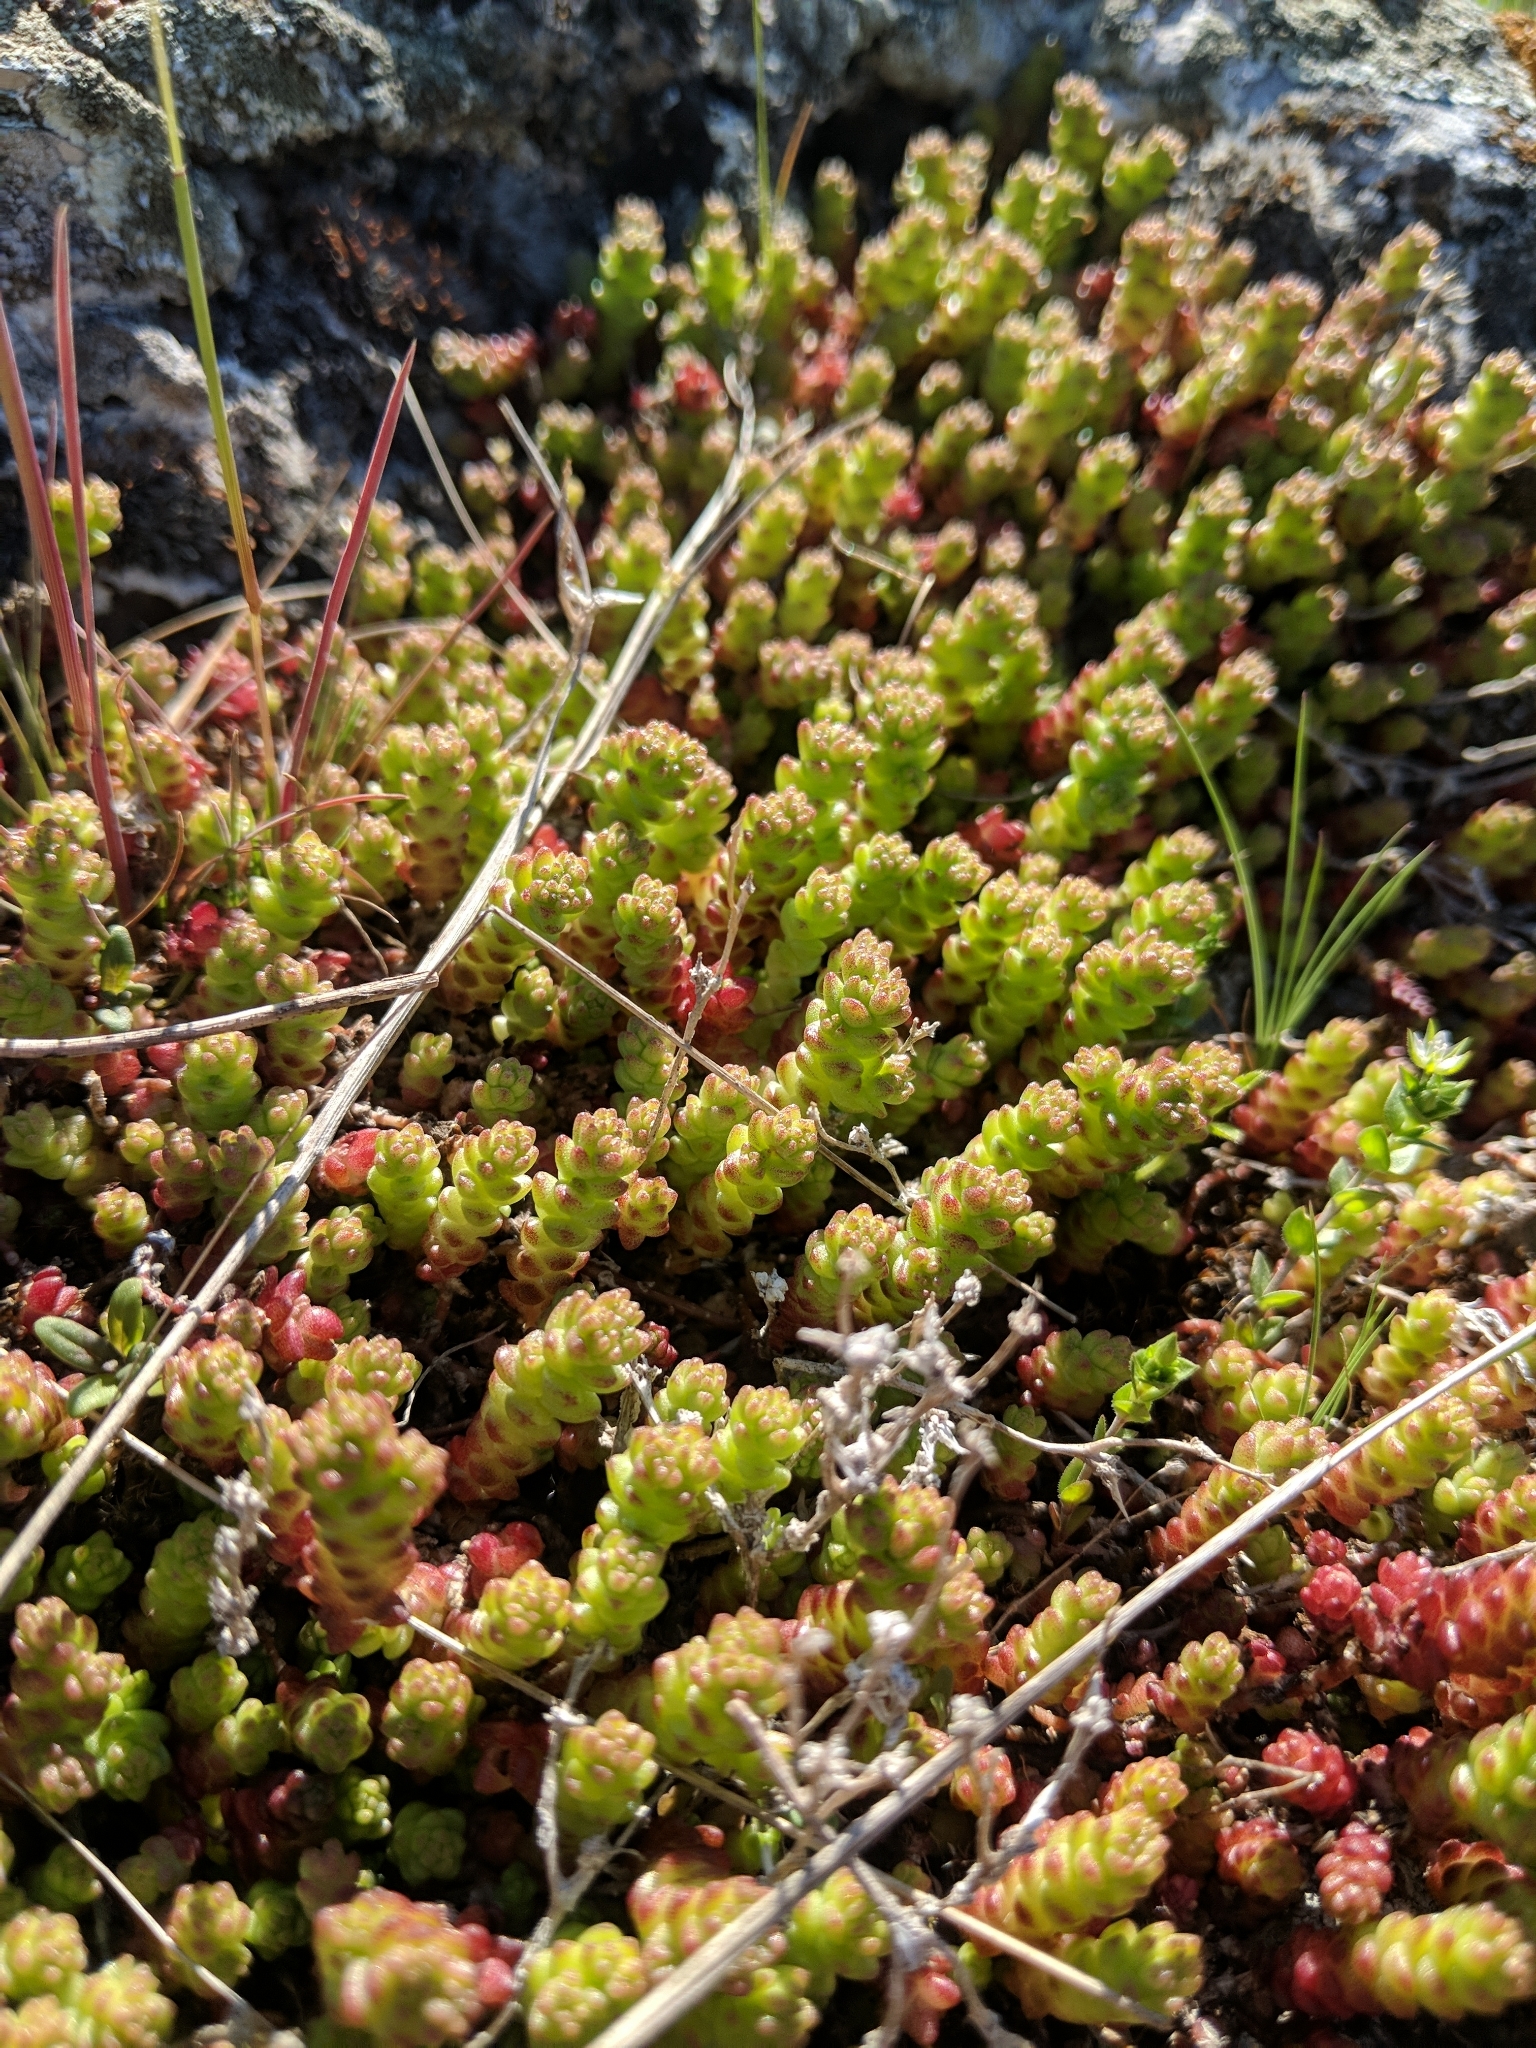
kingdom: Plantae
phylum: Tracheophyta
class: Magnoliopsida
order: Saxifragales
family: Crassulaceae
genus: Sedum
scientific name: Sedum acre
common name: Biting stonecrop
